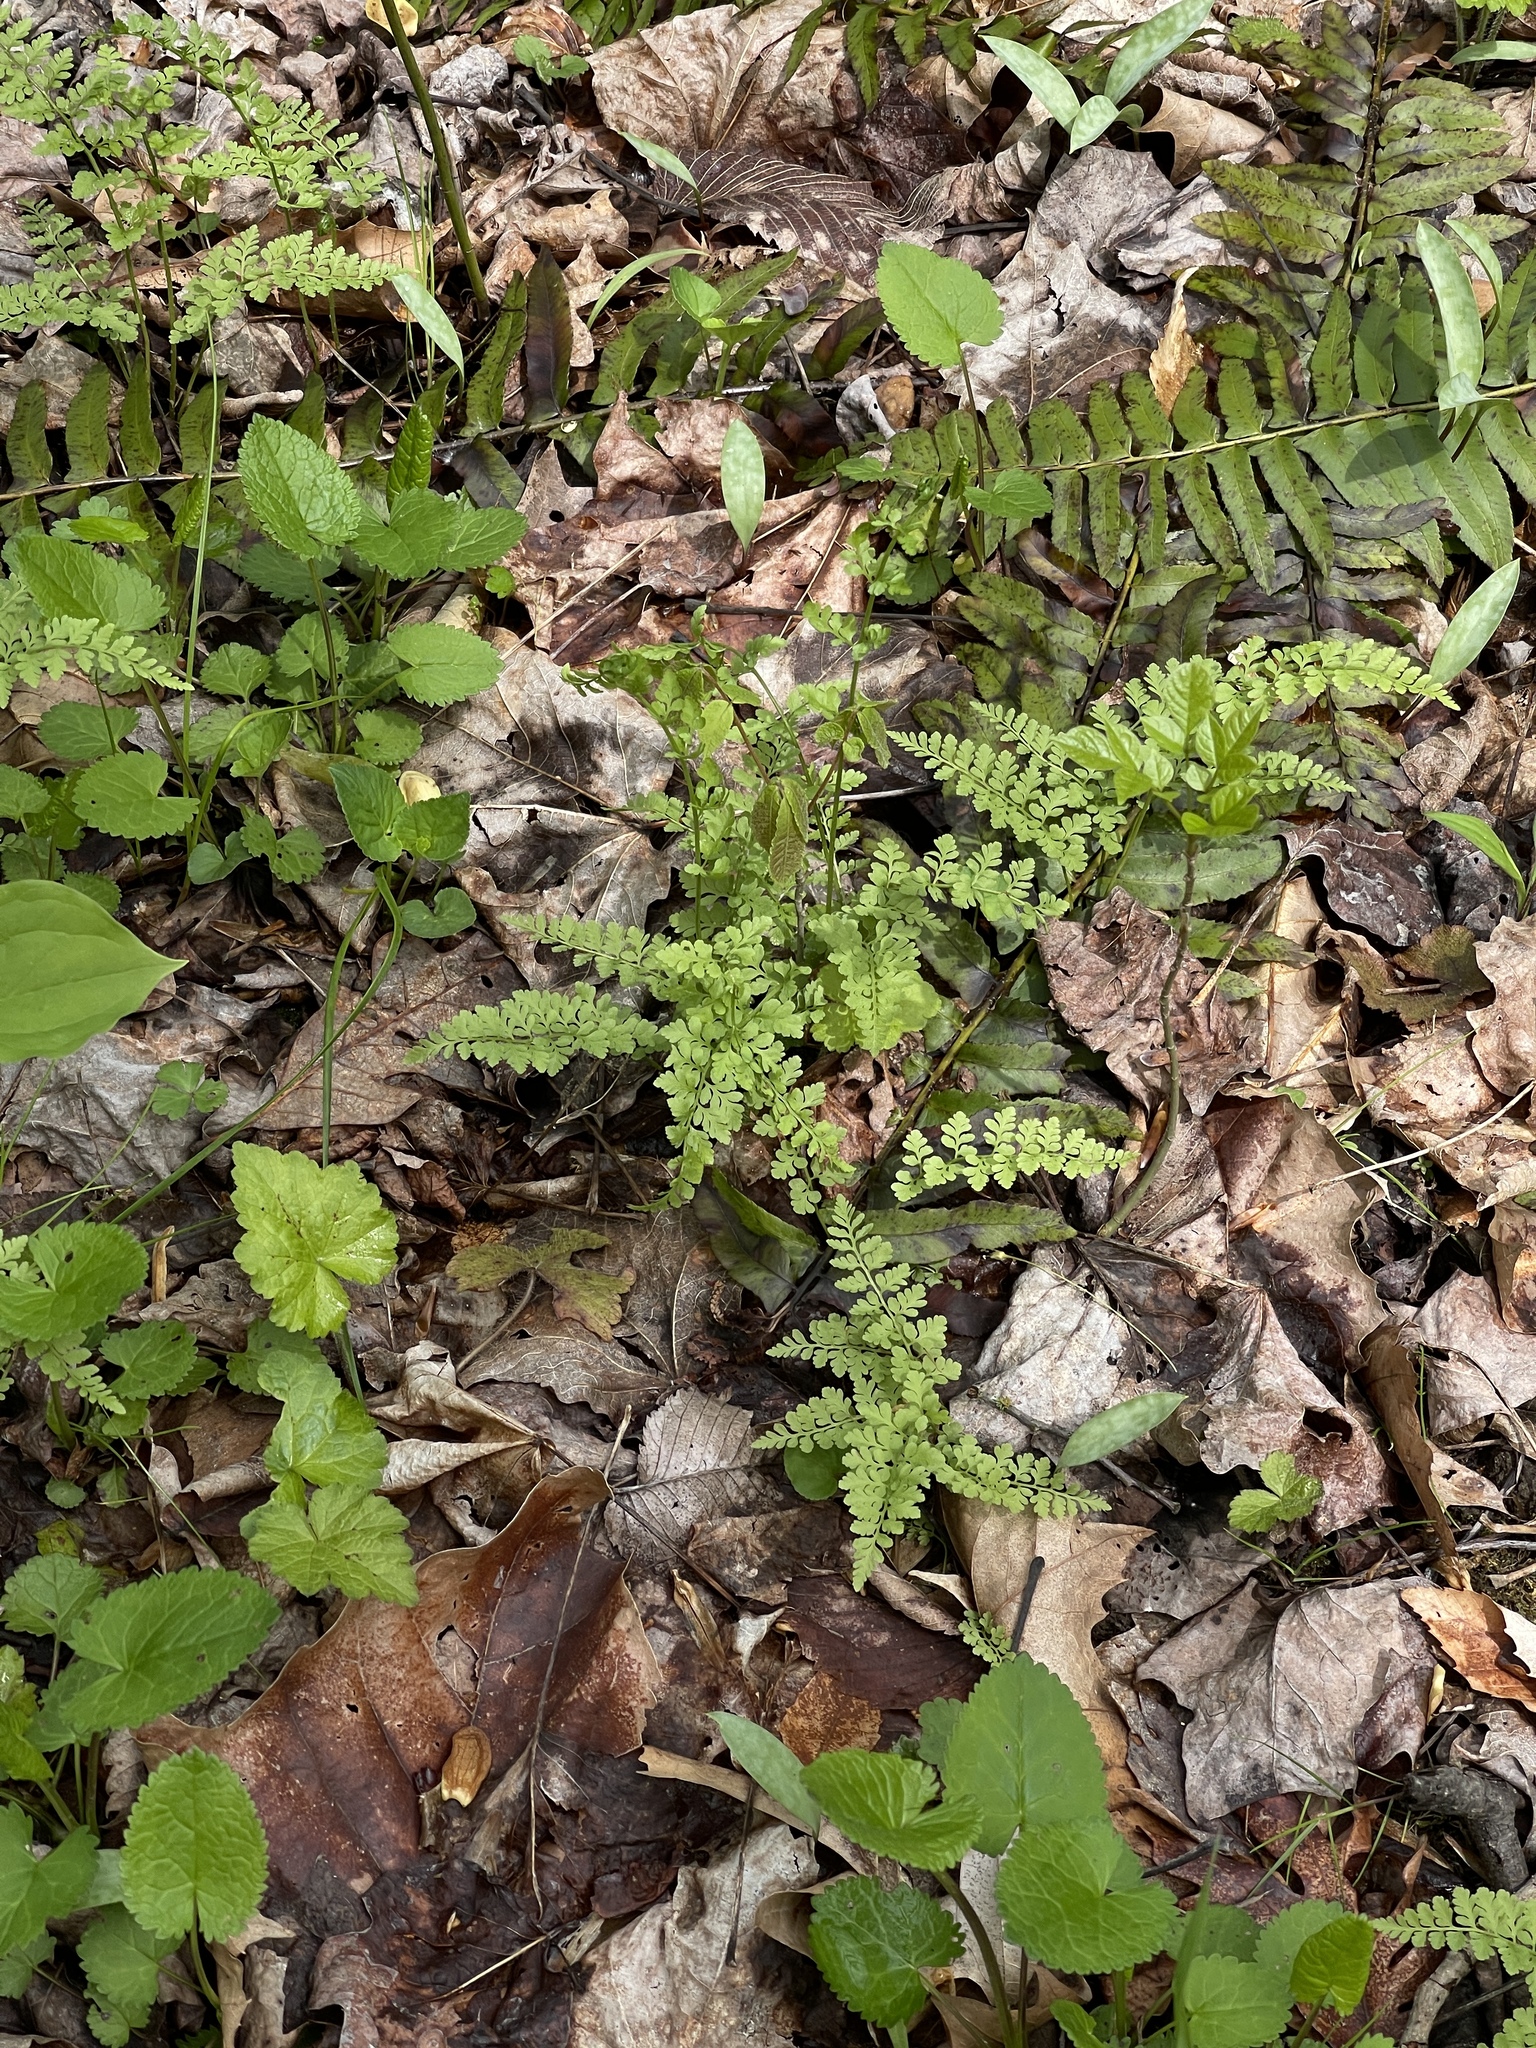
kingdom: Plantae
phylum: Tracheophyta
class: Polypodiopsida
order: Polypodiales
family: Cystopteridaceae
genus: Cystopteris
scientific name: Cystopteris protrusa
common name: Lowland brittle fern
